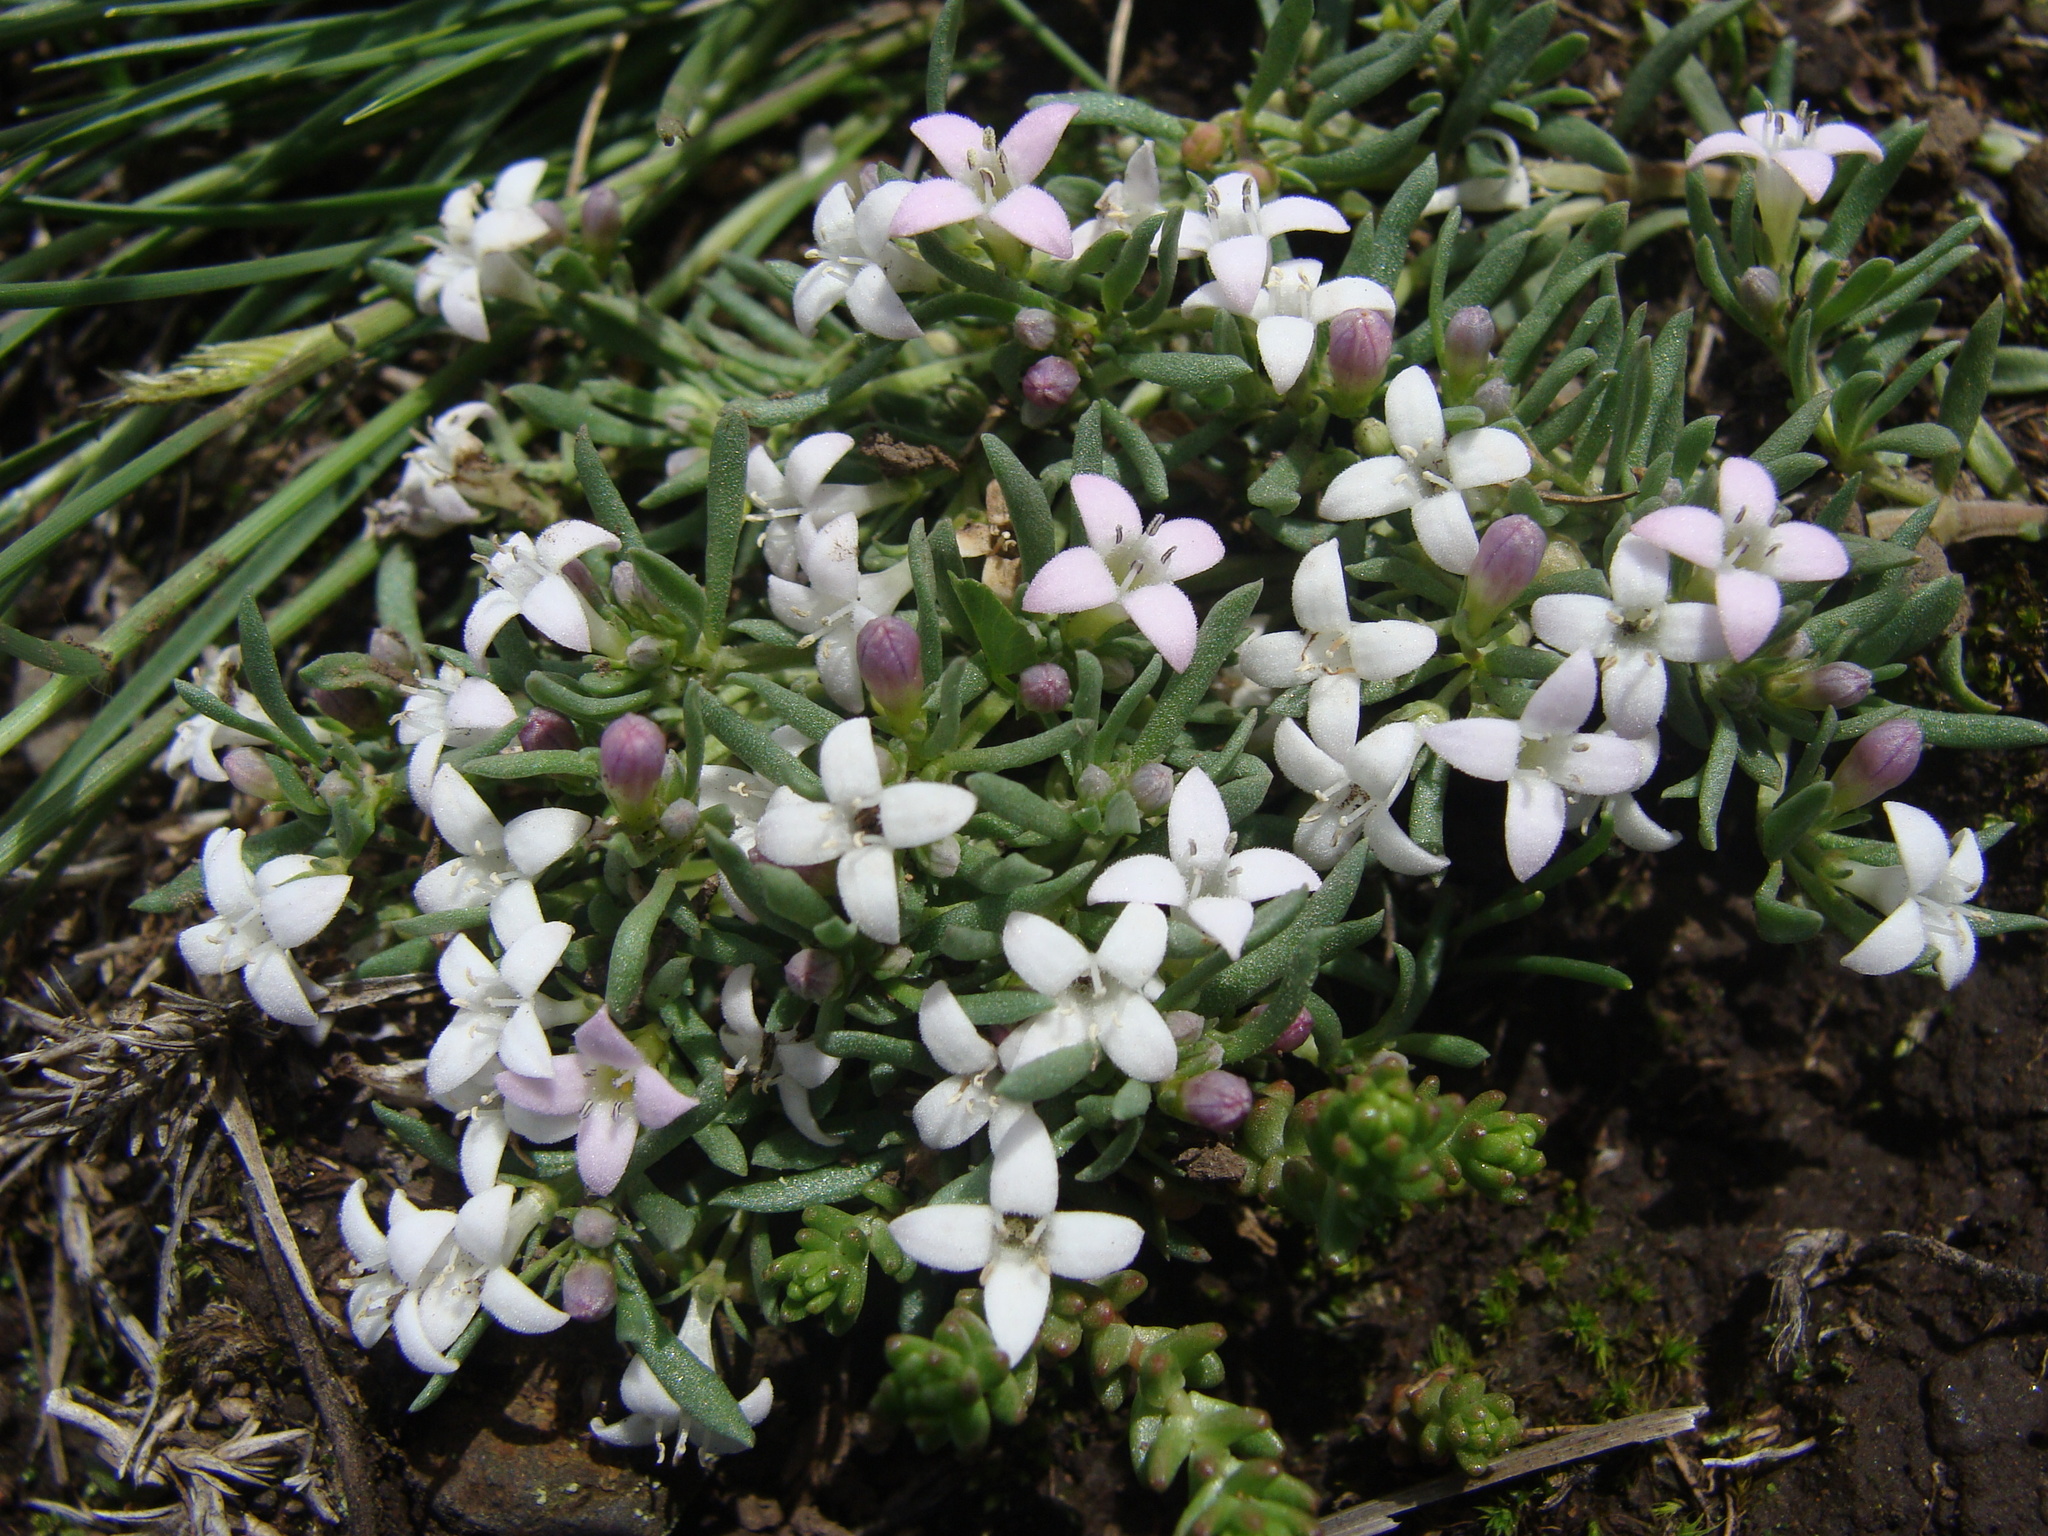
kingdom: Plantae
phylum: Tracheophyta
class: Magnoliopsida
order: Gentianales
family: Rubiaceae
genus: Houstonia
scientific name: Houstonia wrightii
